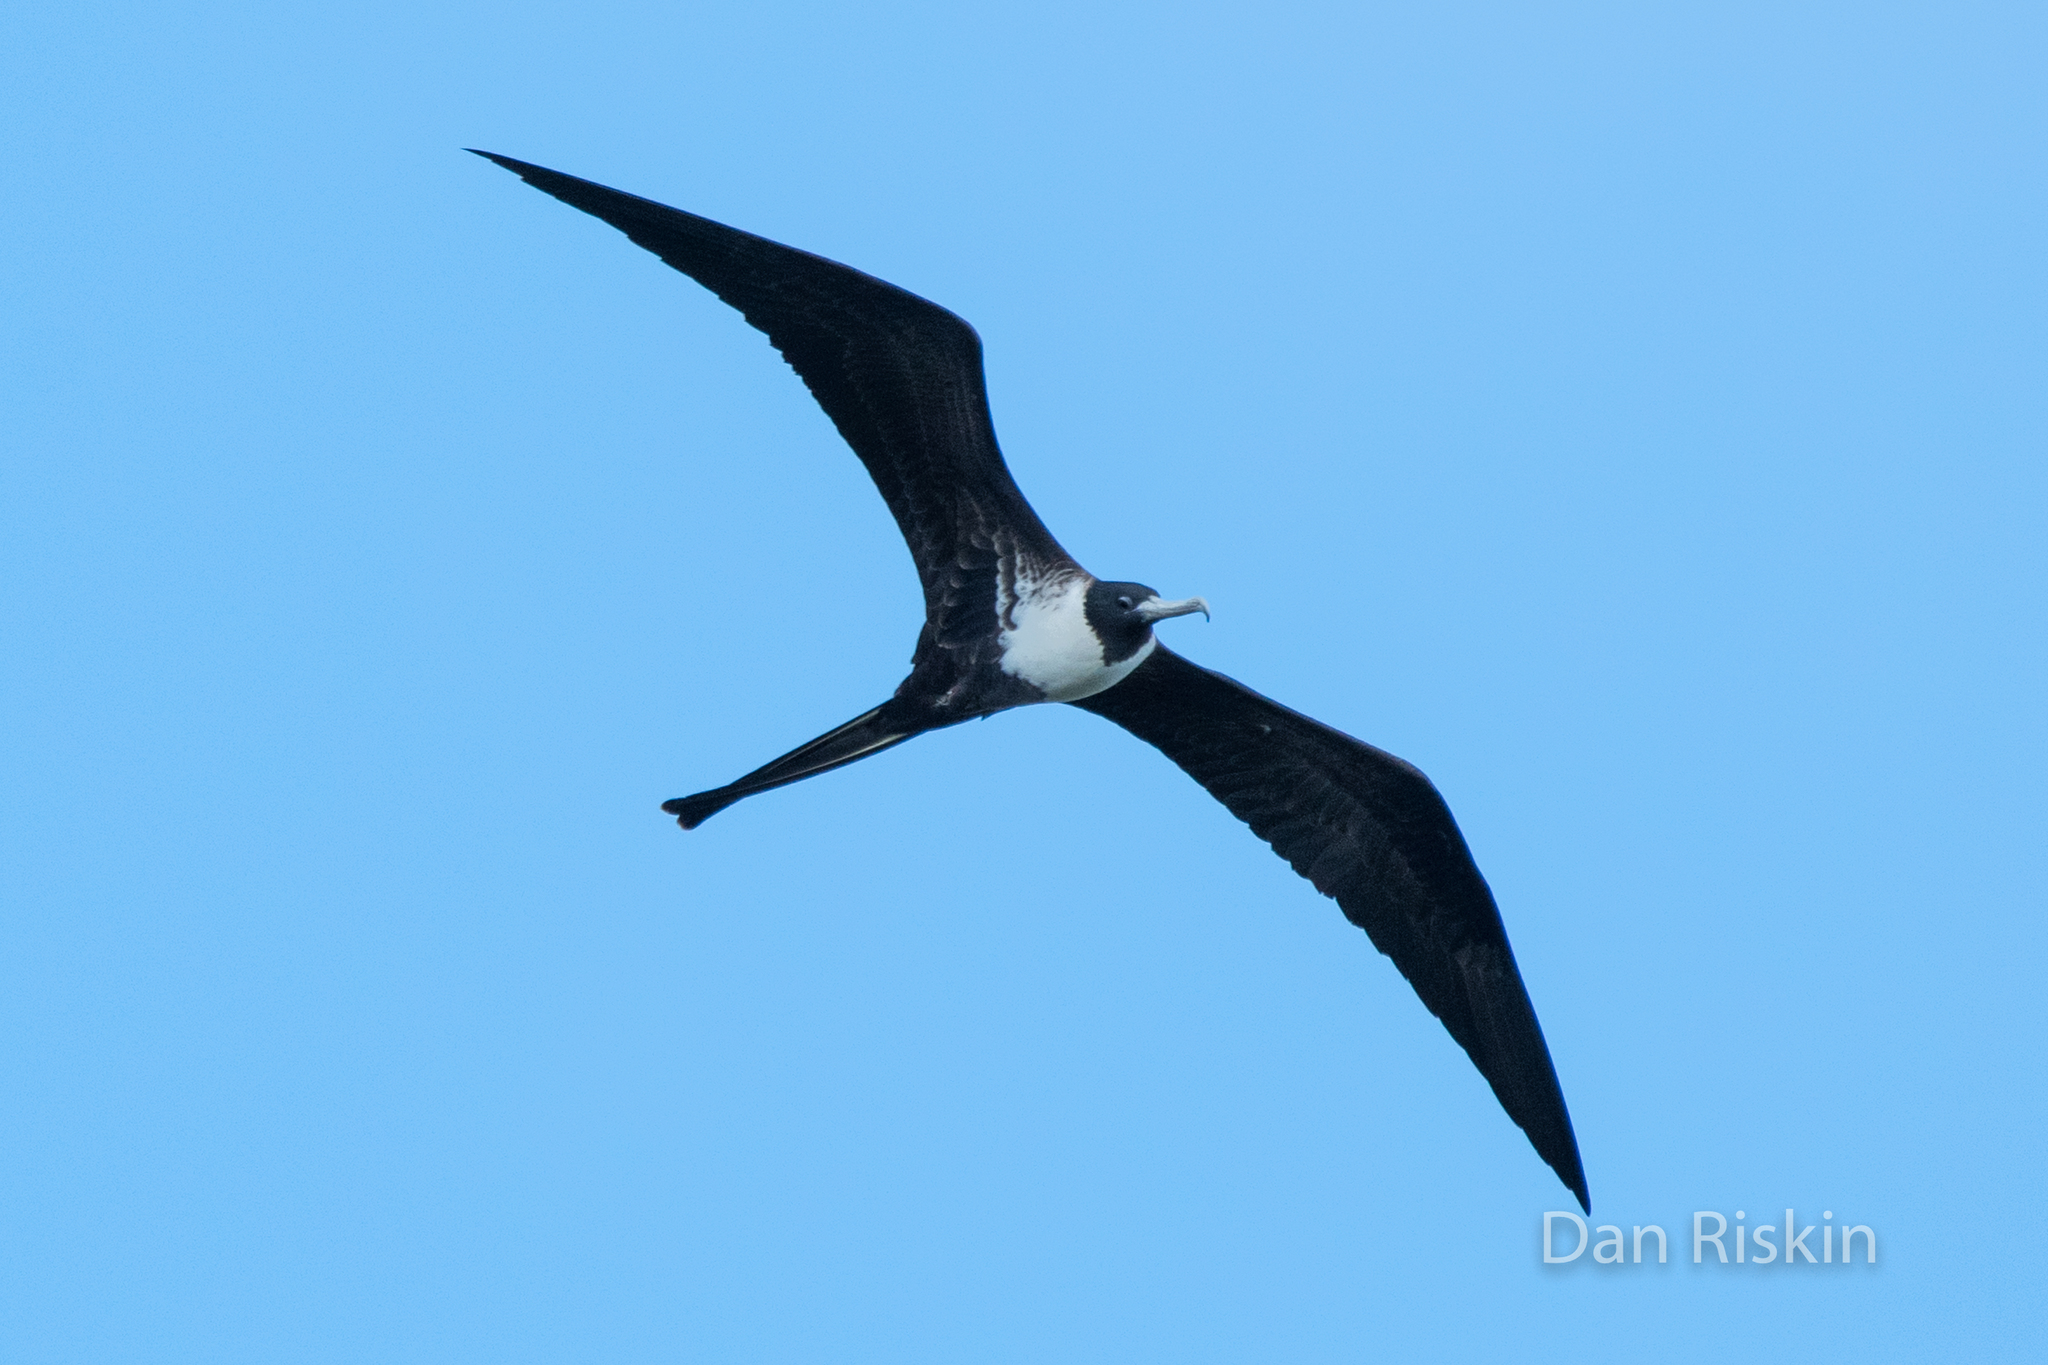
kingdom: Animalia
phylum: Chordata
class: Aves
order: Suliformes
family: Fregatidae
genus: Fregata
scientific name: Fregata magnificens
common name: Magnificent frigatebird
